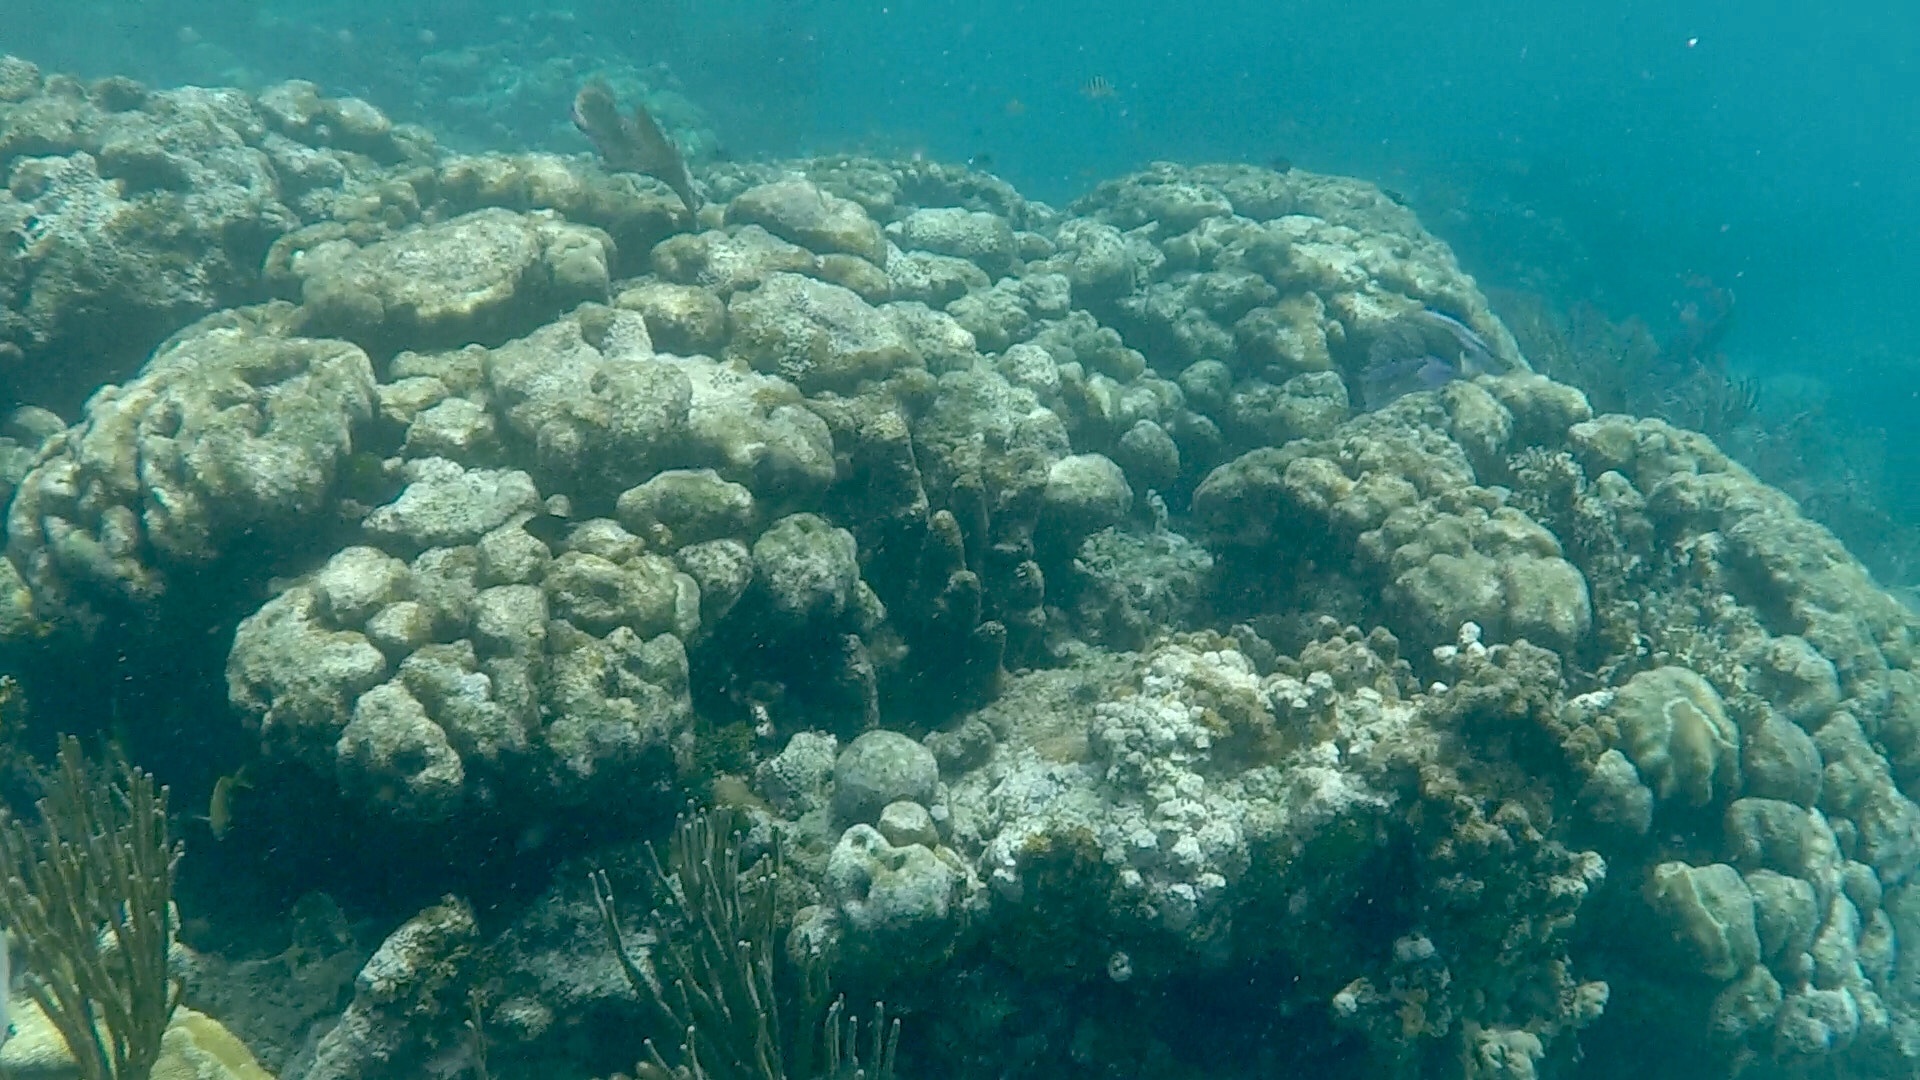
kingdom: Animalia
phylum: Cnidaria
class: Anthozoa
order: Scleractinia
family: Merulinidae
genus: Orbicella
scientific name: Orbicella annularis
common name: Boulder star coral
